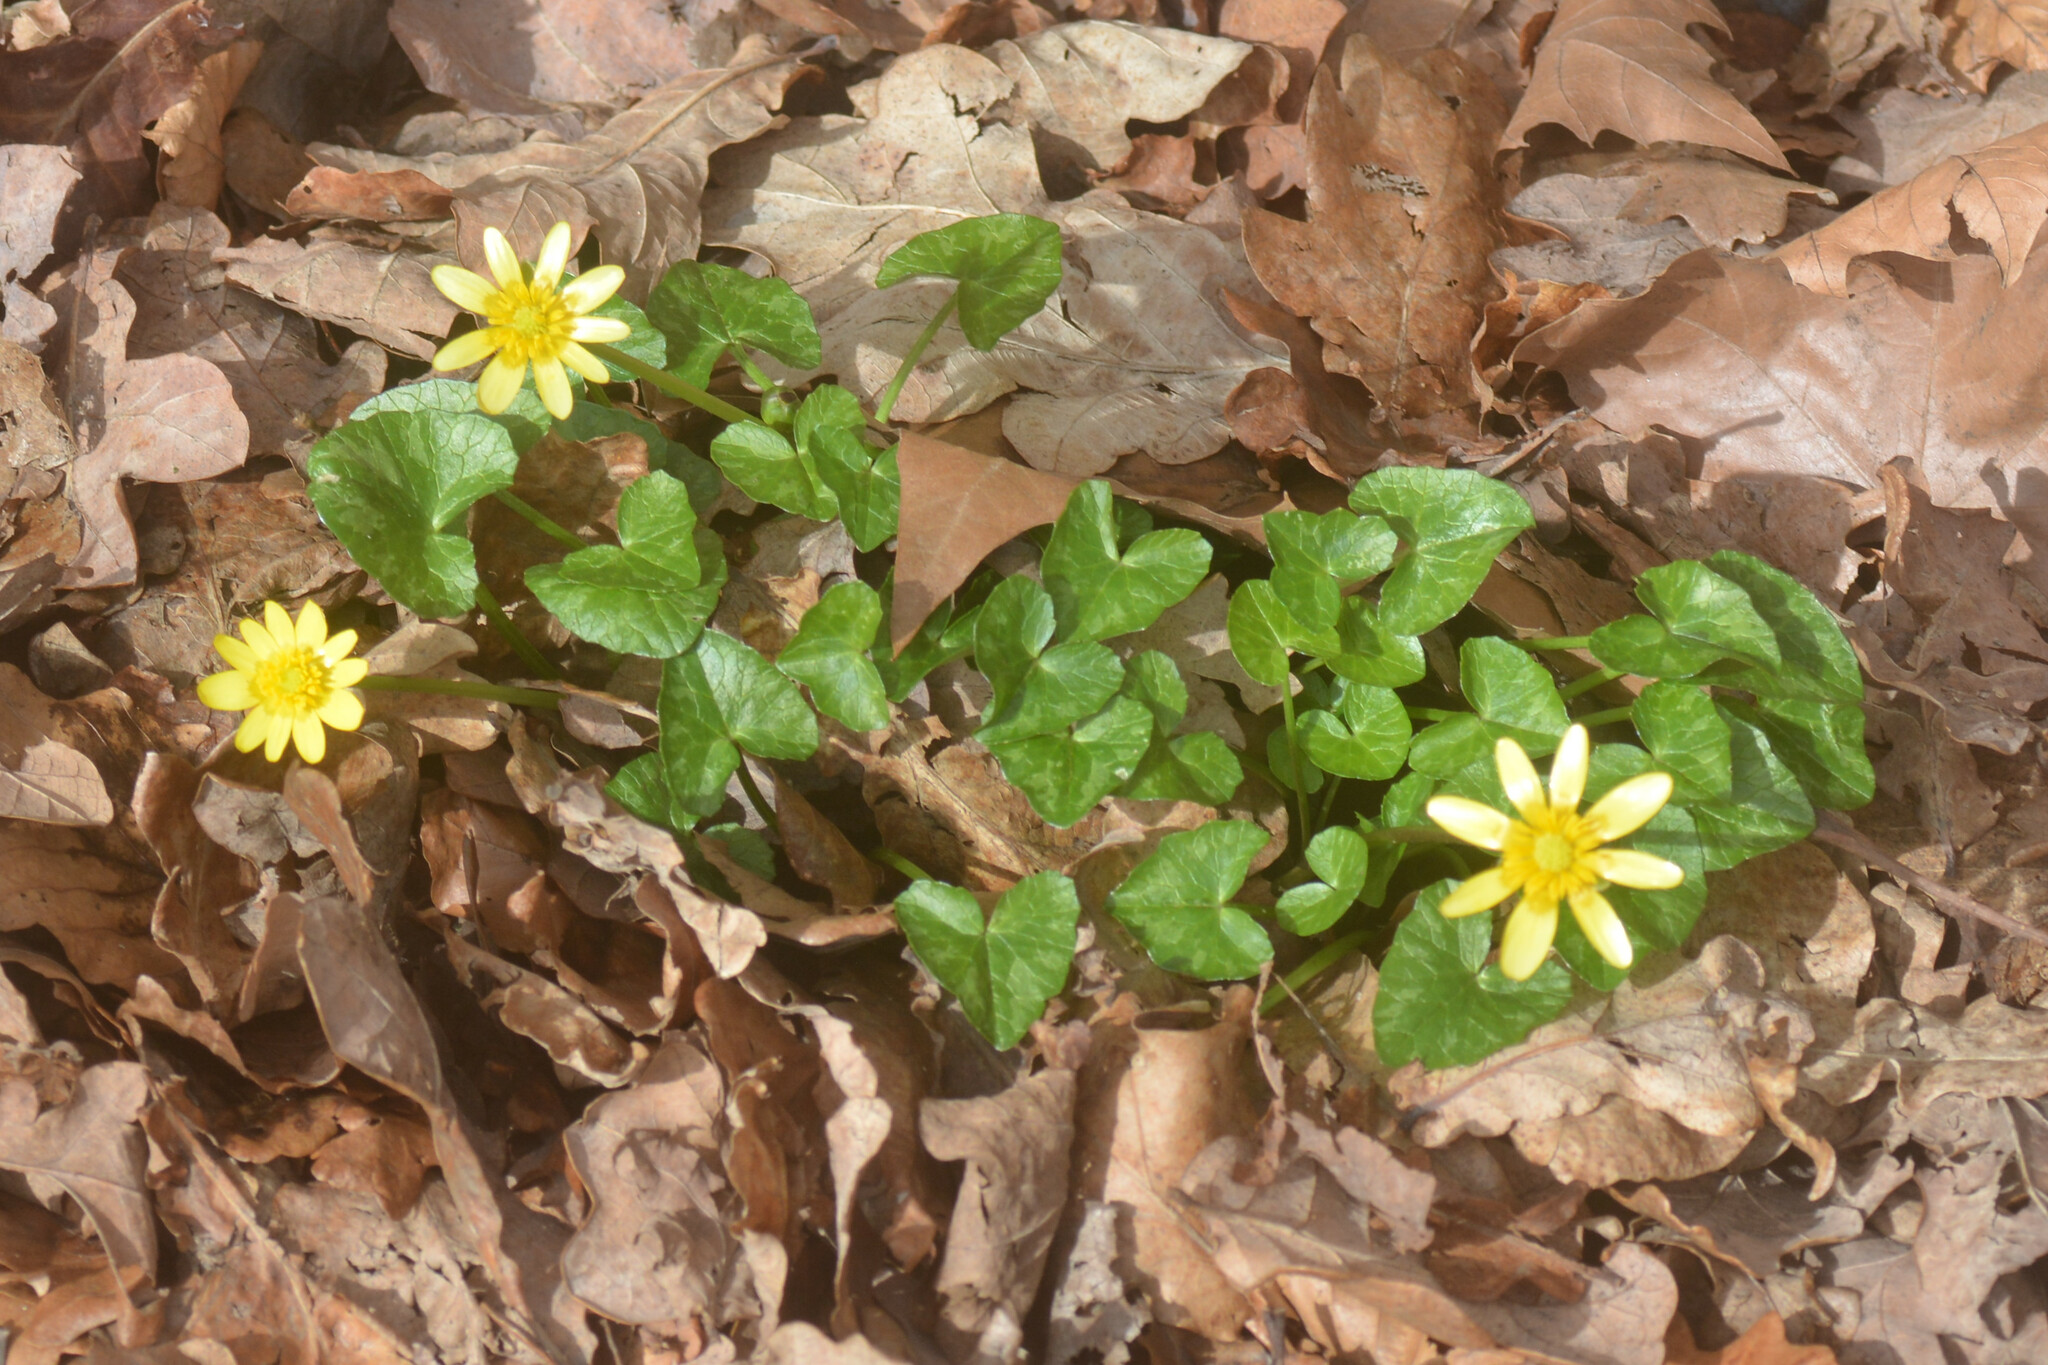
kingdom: Plantae
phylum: Tracheophyta
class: Magnoliopsida
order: Ranunculales
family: Ranunculaceae
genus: Ficaria
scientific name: Ficaria verna
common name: Lesser celandine
